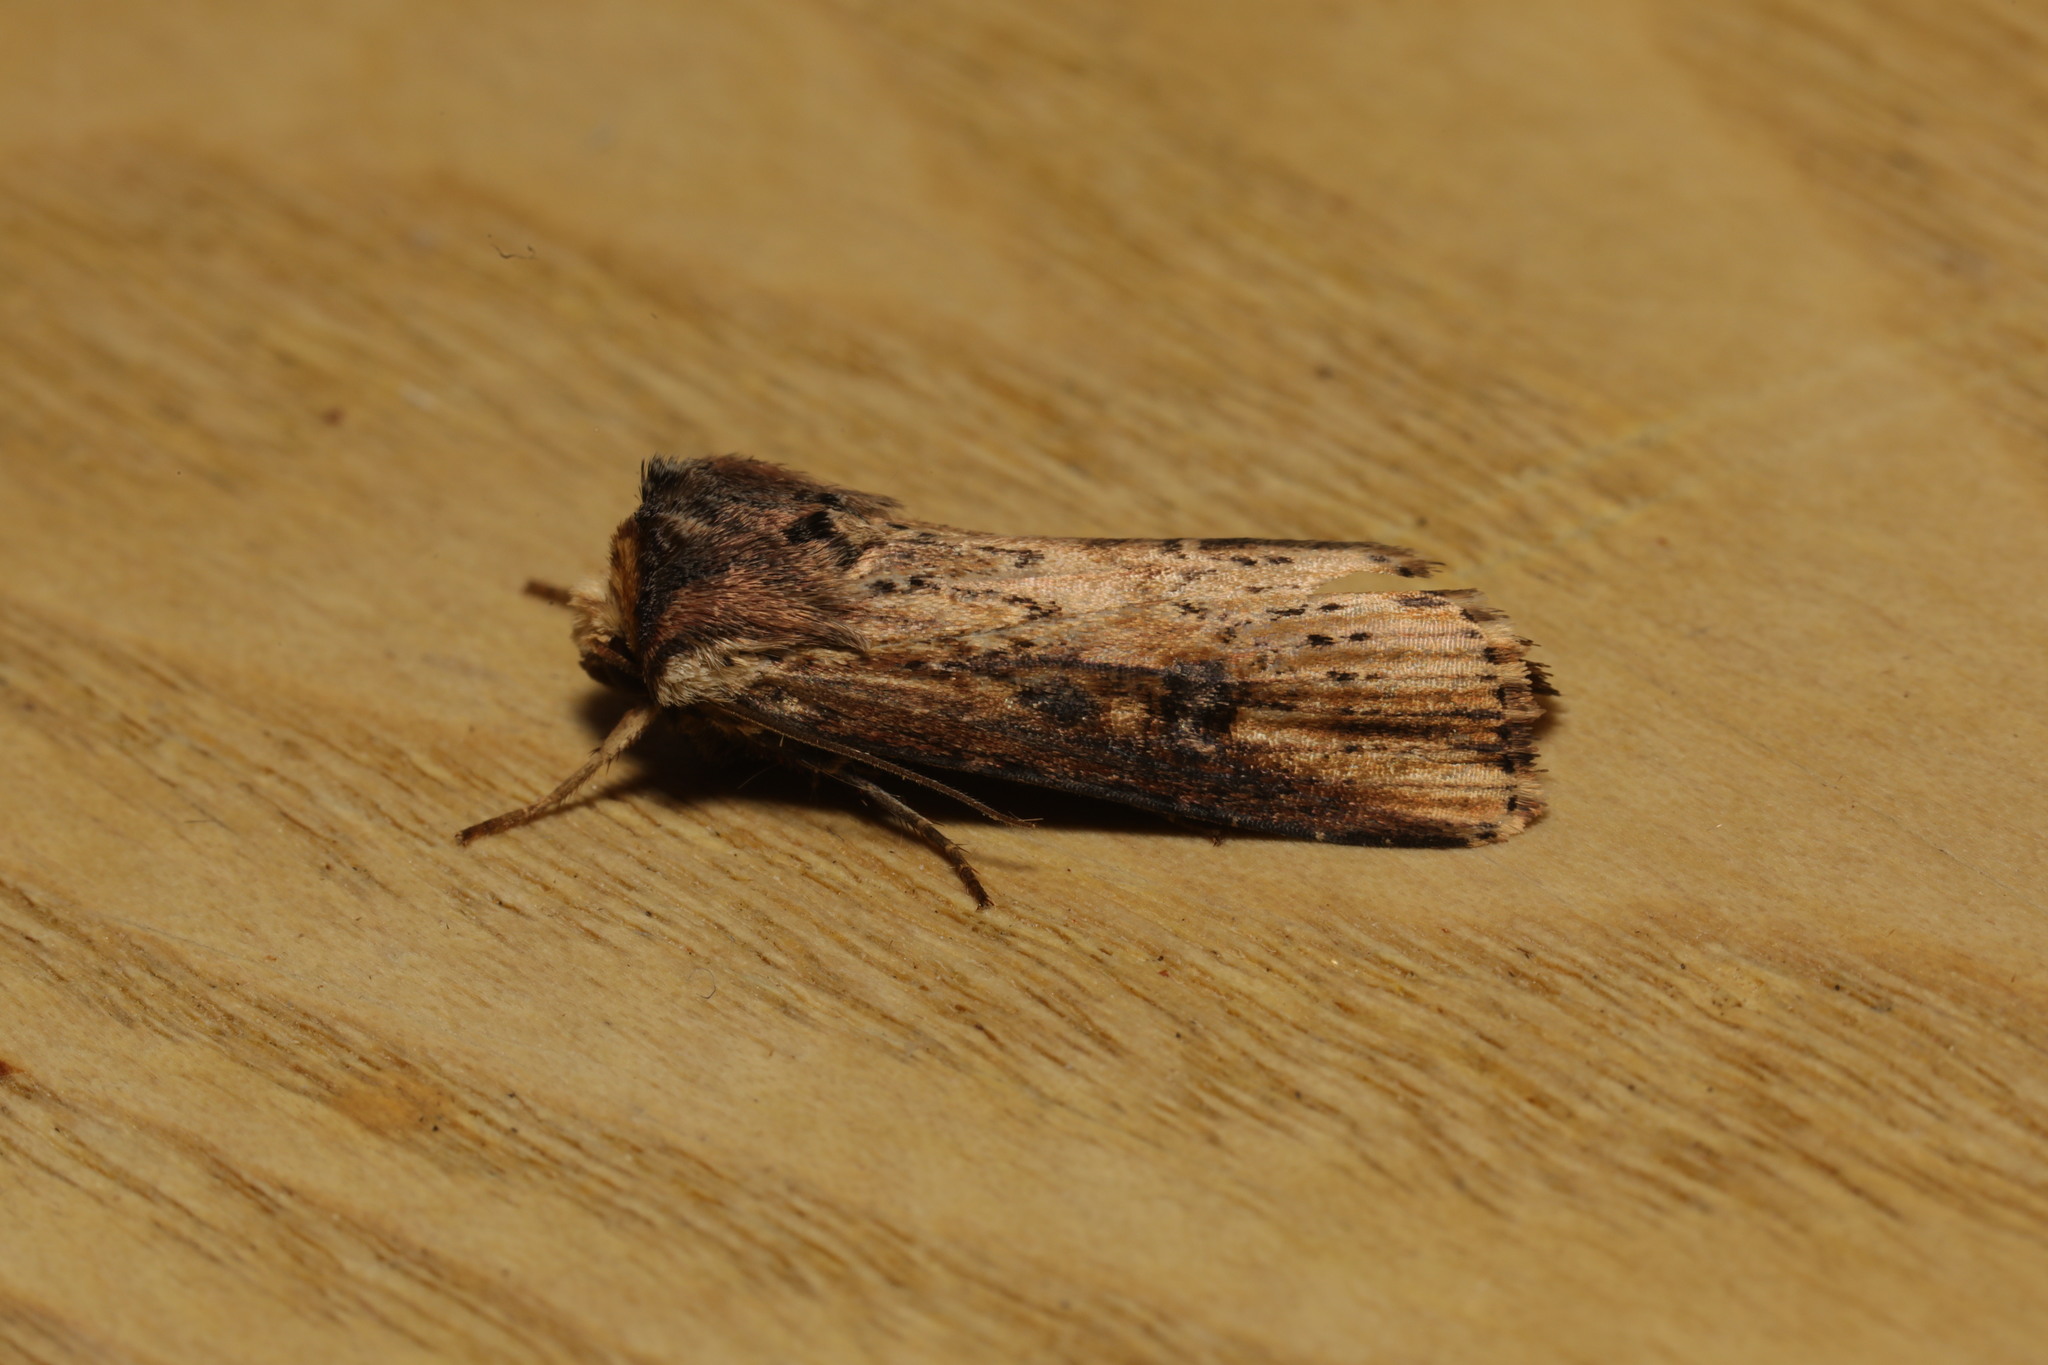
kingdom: Animalia
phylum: Arthropoda
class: Insecta
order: Lepidoptera
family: Noctuidae
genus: Axylia
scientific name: Axylia putris
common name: Flame
